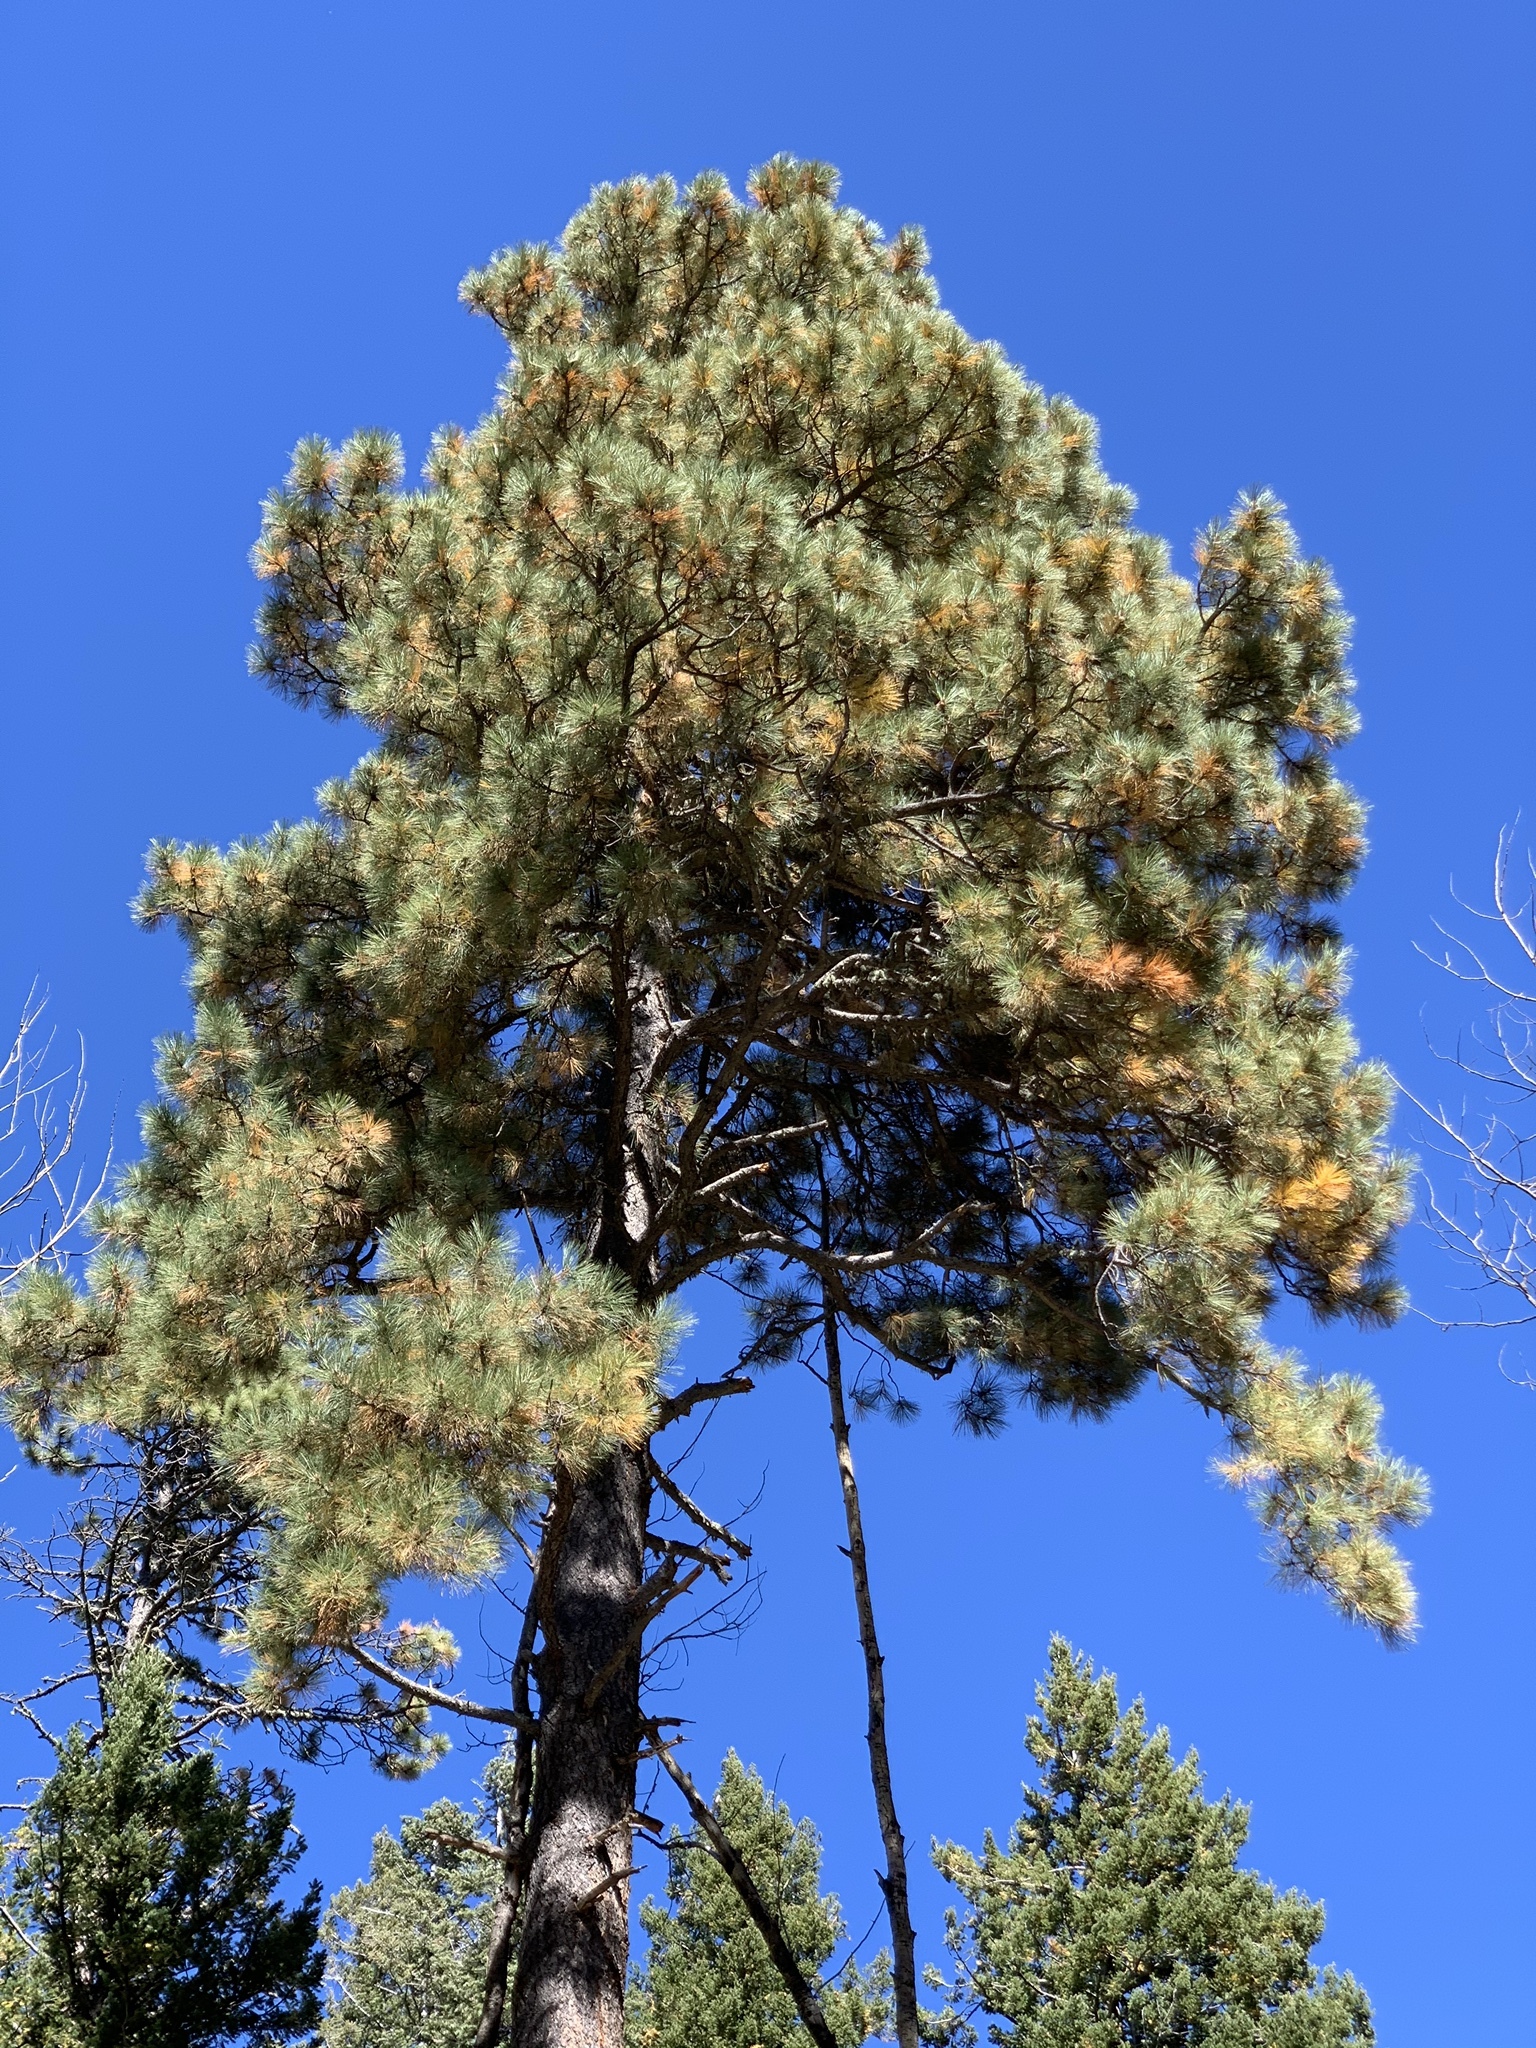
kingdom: Plantae
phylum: Tracheophyta
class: Pinopsida
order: Pinales
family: Pinaceae
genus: Pinus
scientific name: Pinus ponderosa
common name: Western yellow-pine
